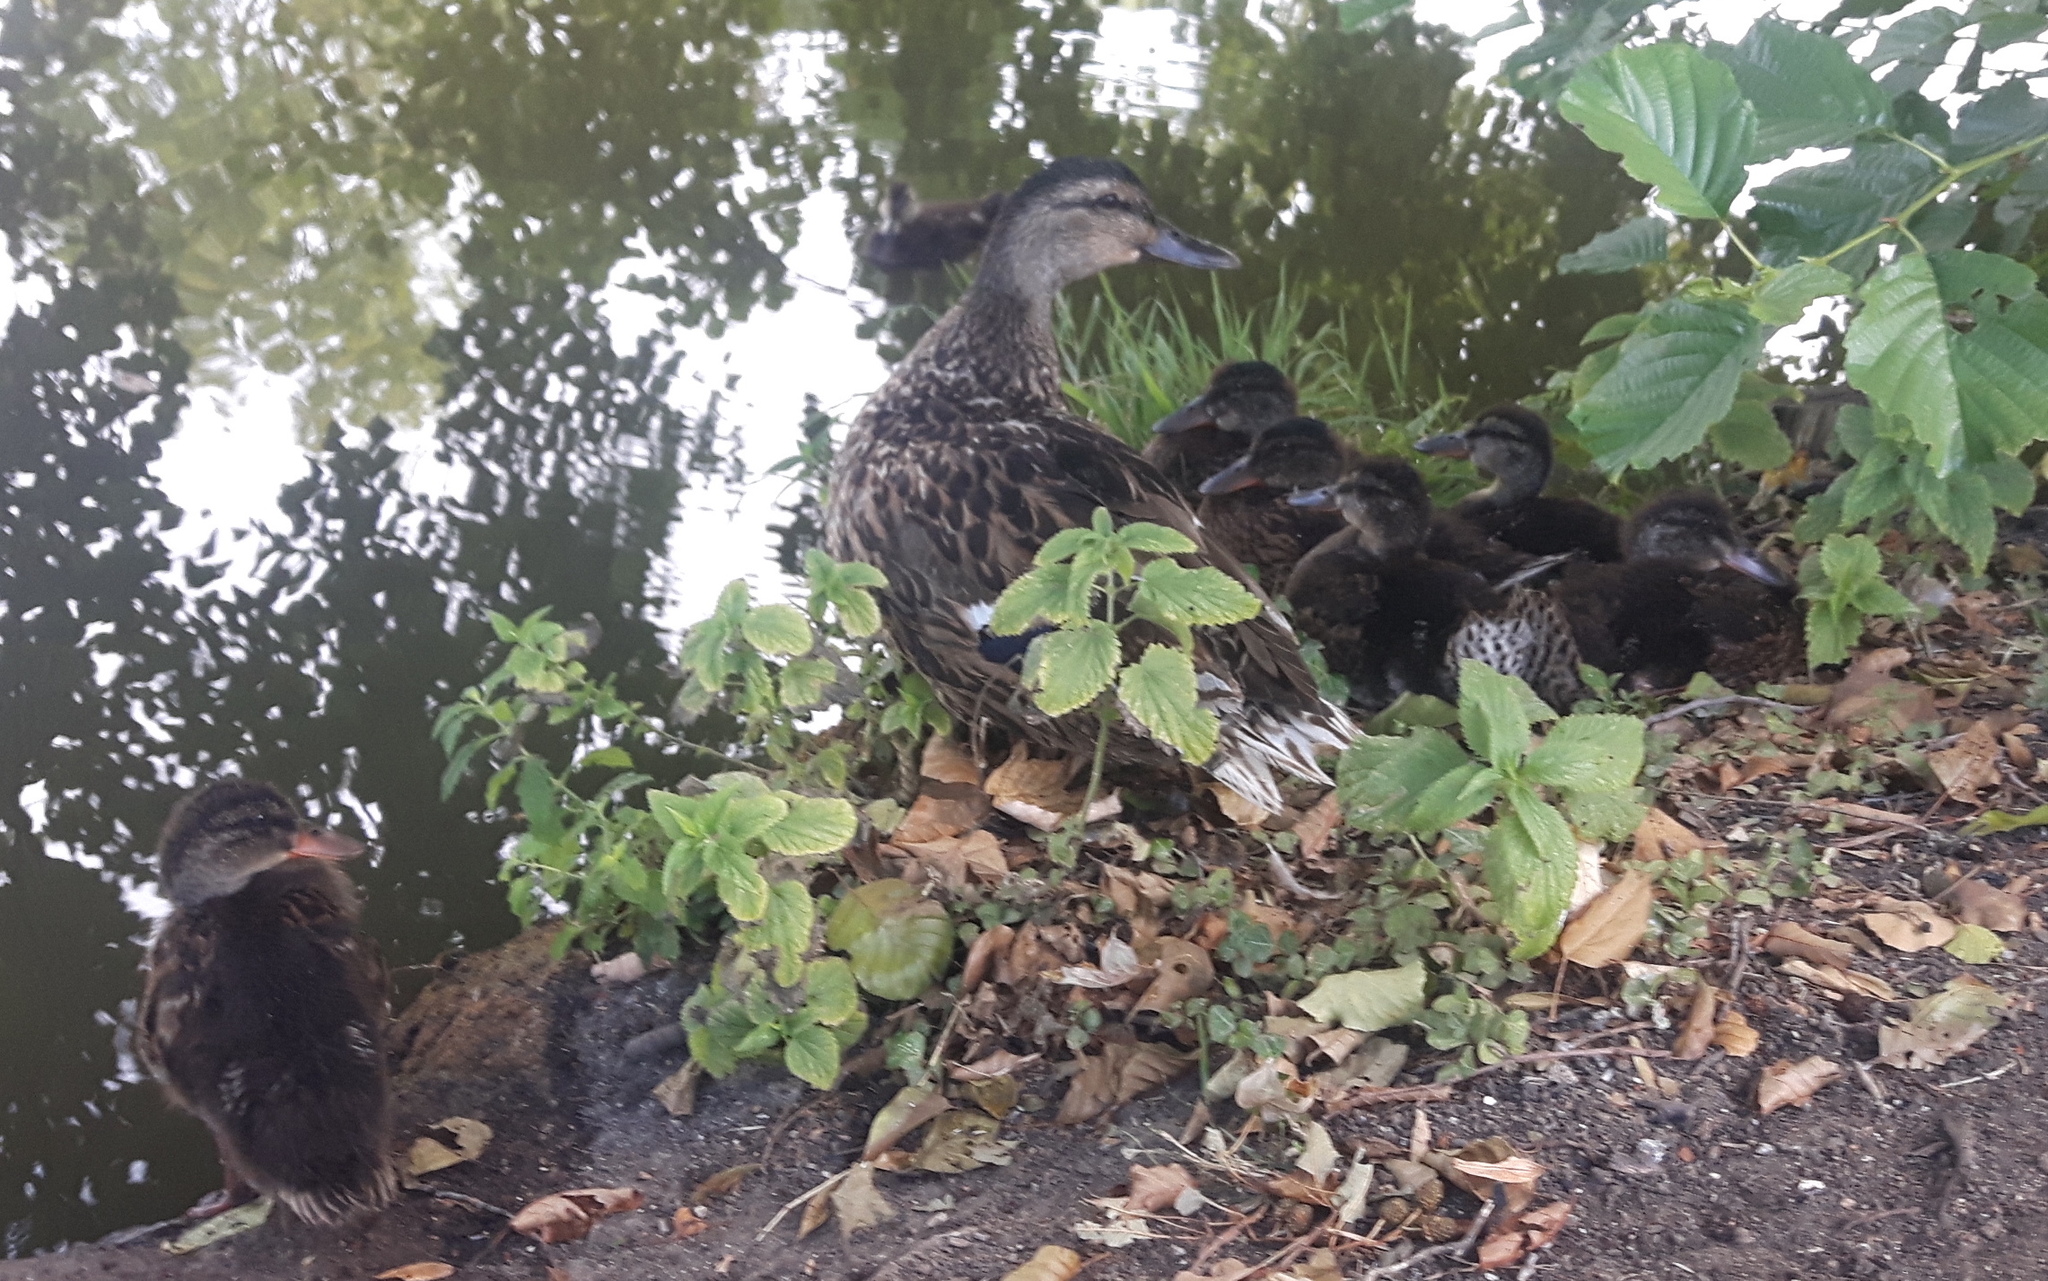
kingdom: Animalia
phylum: Chordata
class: Aves
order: Anseriformes
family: Anatidae
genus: Anas
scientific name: Anas platyrhynchos
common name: Mallard
